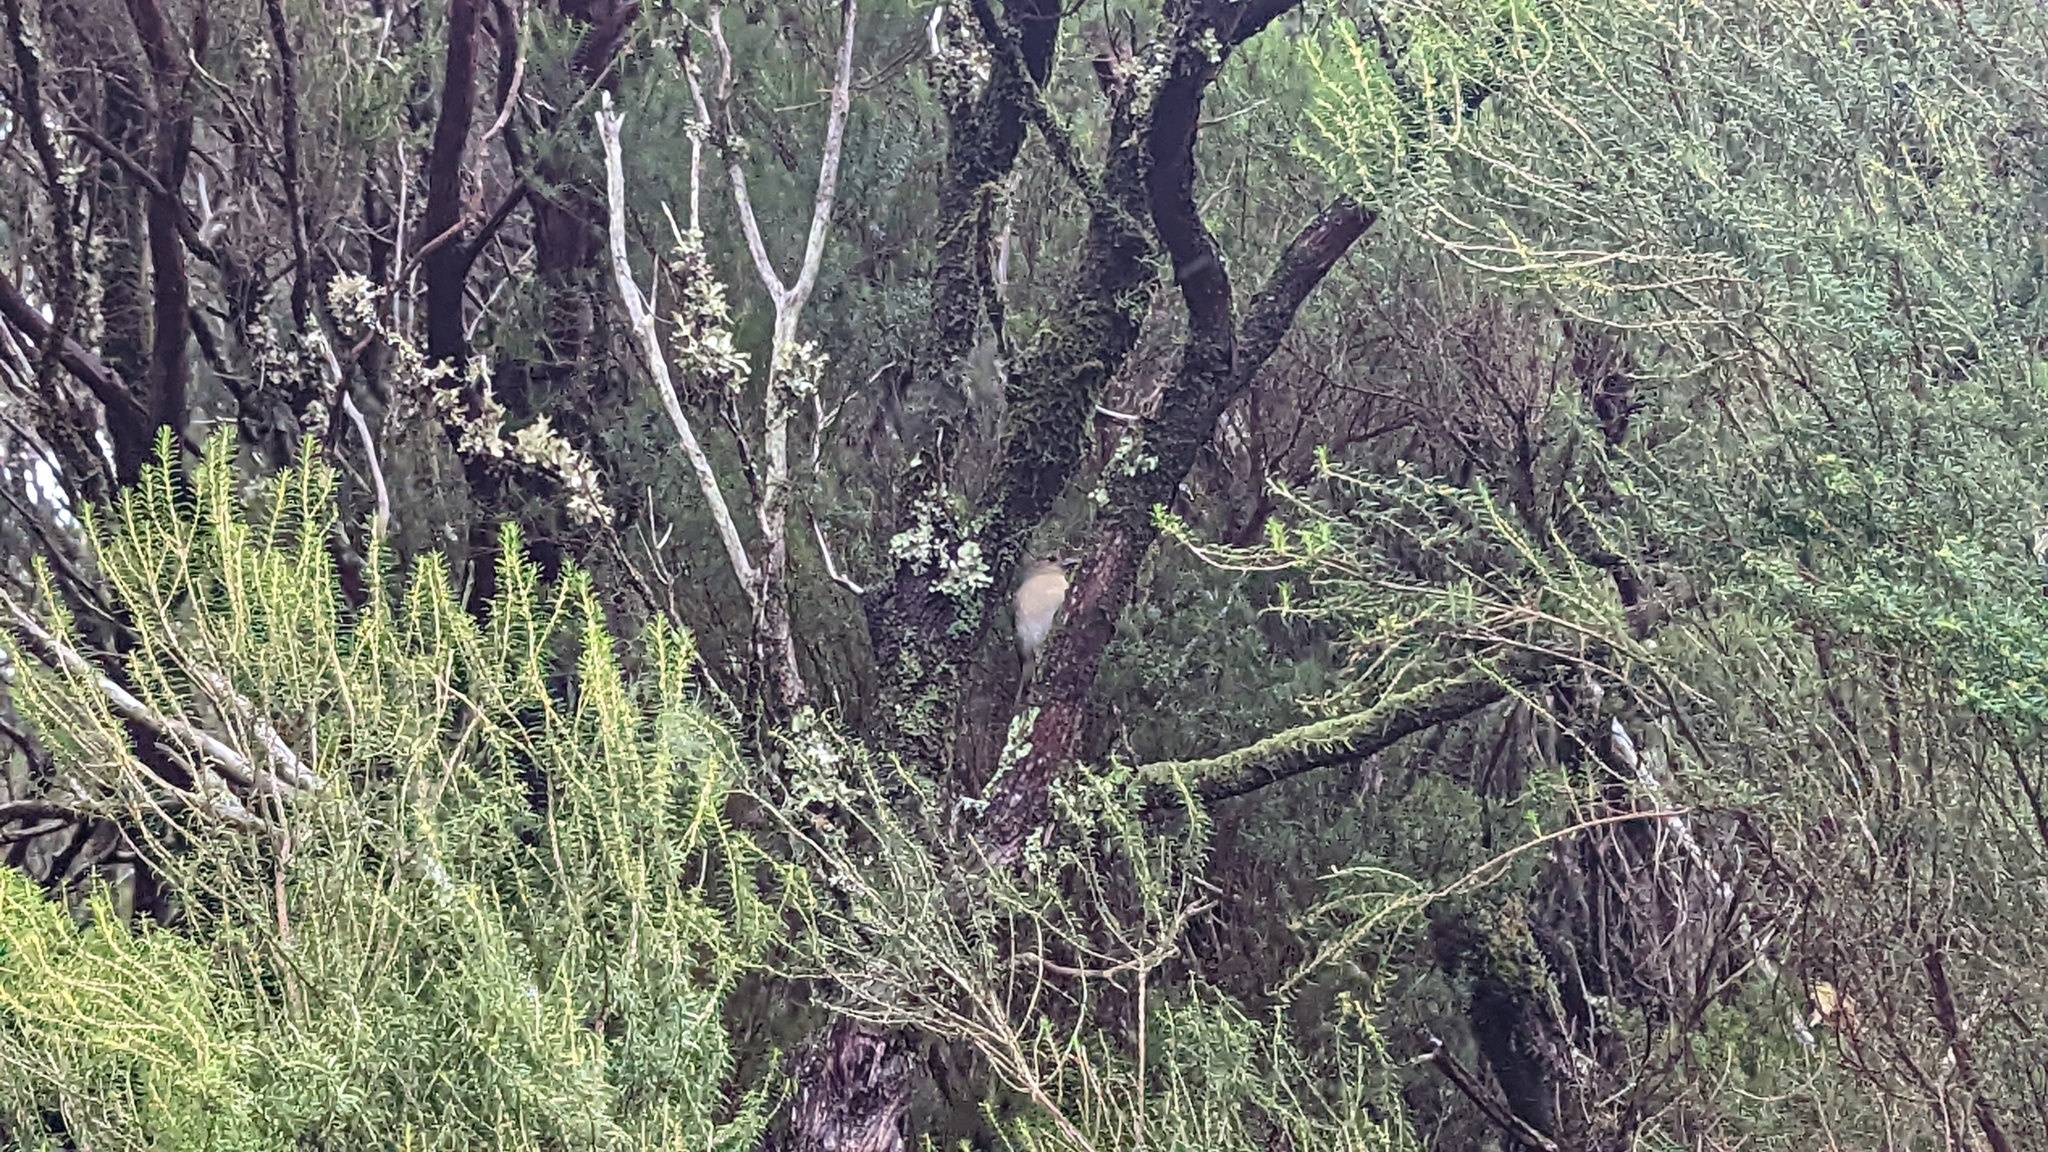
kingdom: Animalia
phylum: Chordata
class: Aves
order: Passeriformes
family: Fringillidae
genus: Fringilla
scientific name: Fringilla maderensis
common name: Madeira chaffinch
